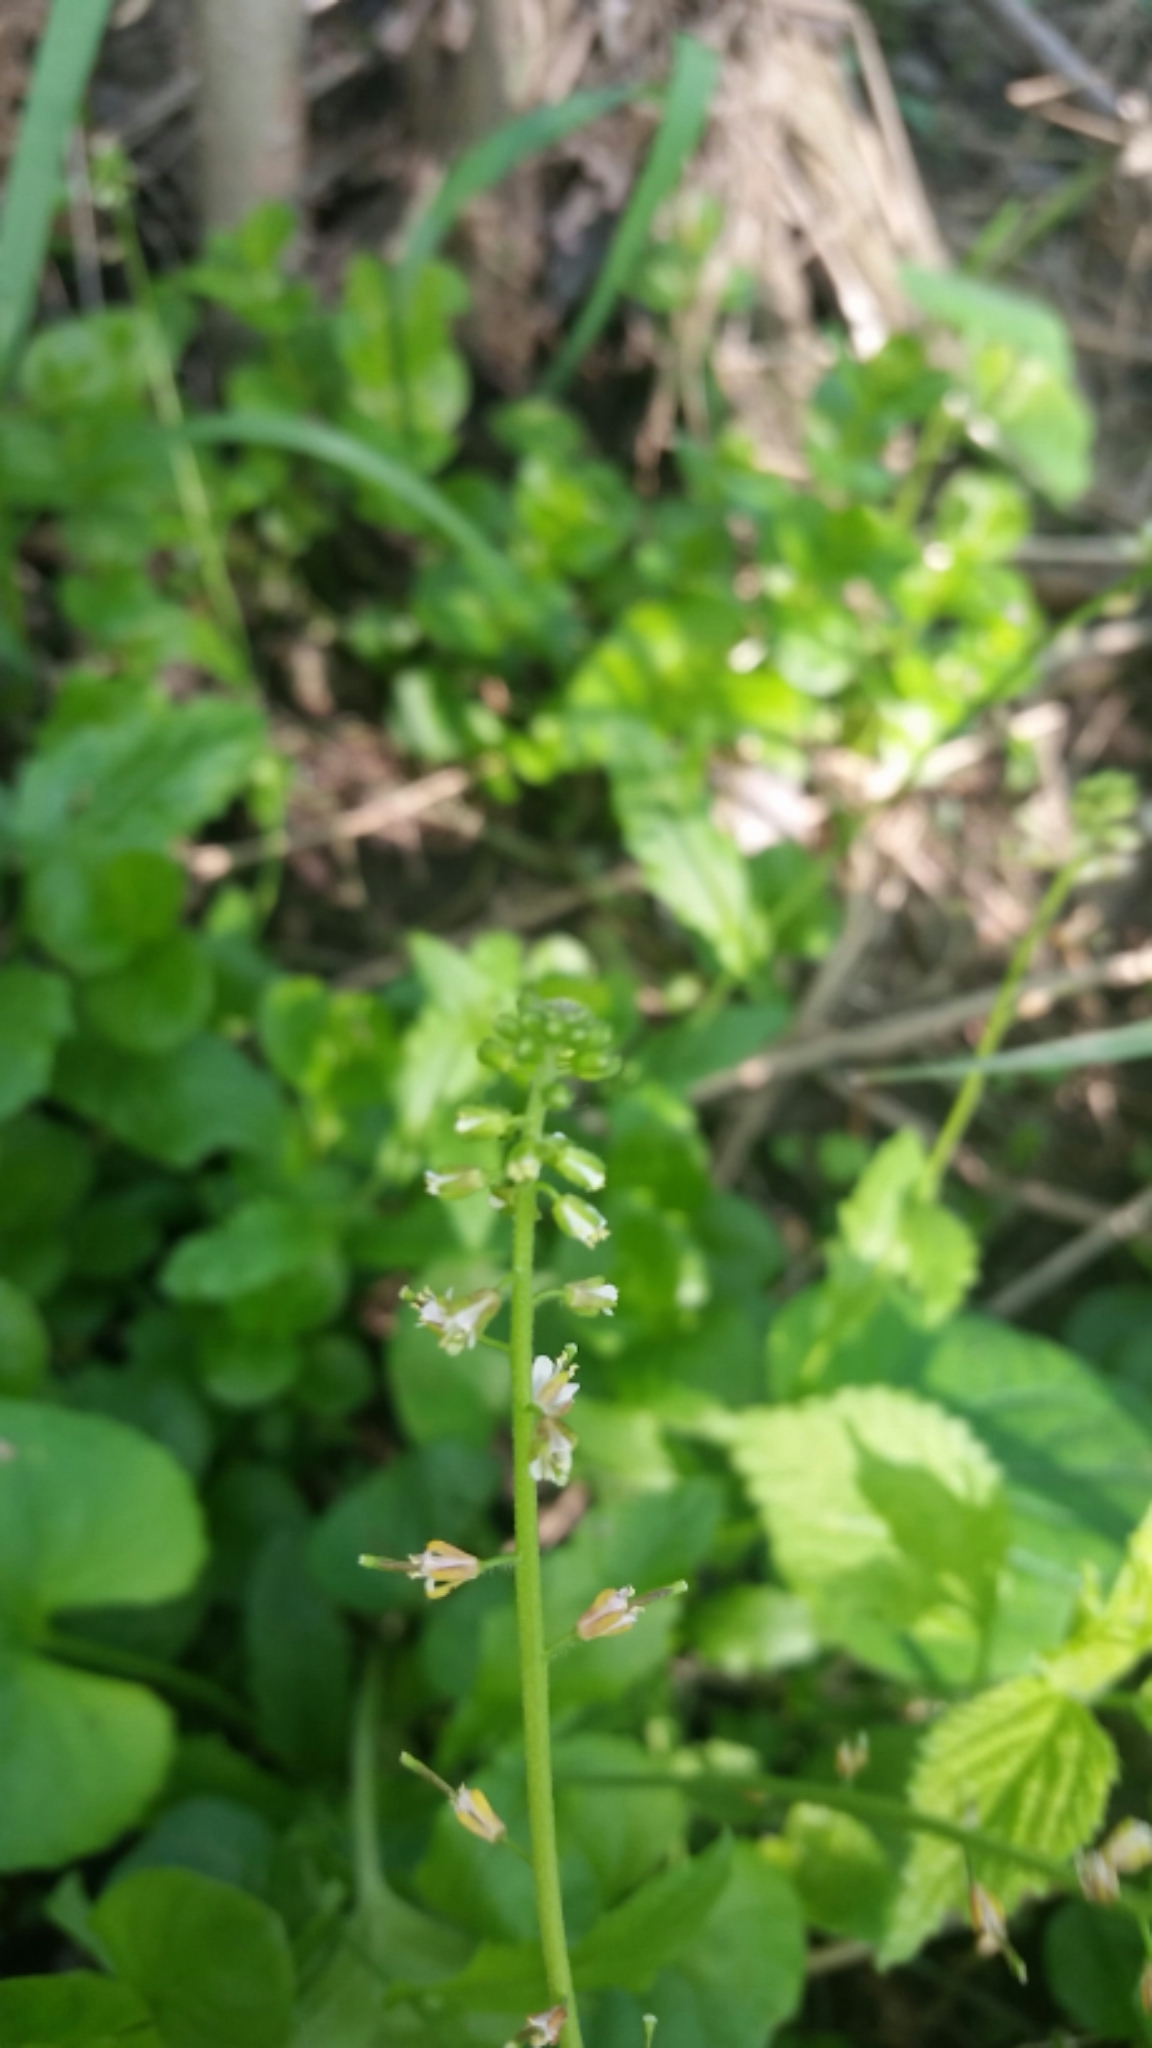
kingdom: Plantae
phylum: Tracheophyta
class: Magnoliopsida
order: Brassicales
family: Brassicaceae
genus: Borodinia
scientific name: Borodinia dentata
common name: Short's rockcress
